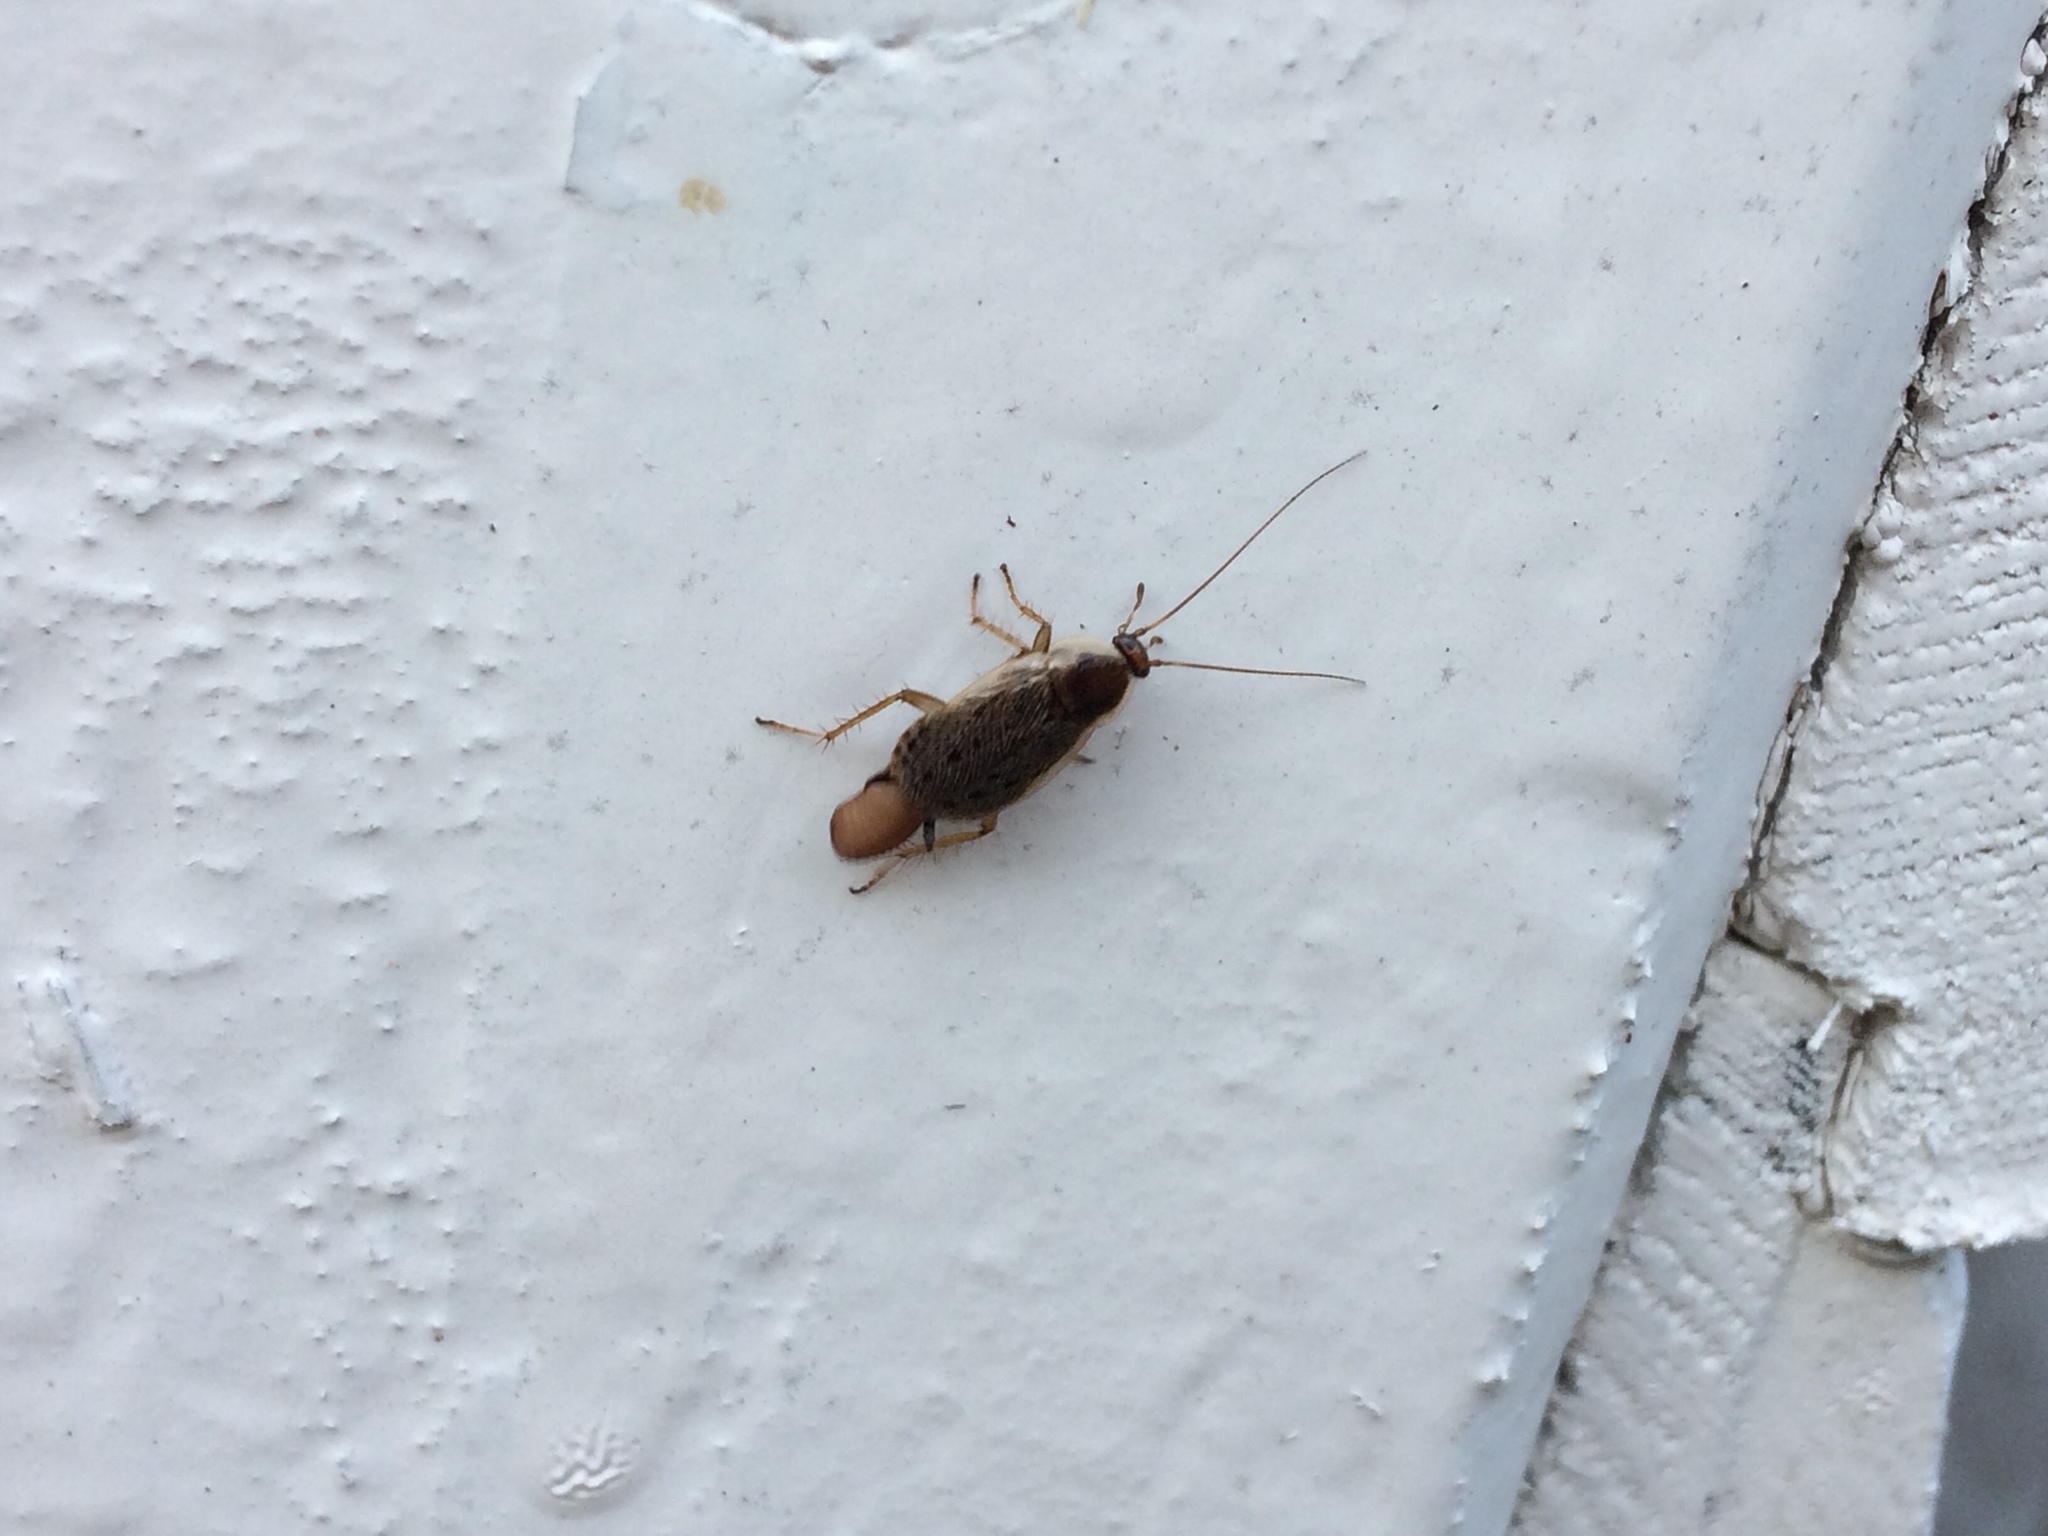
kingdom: Animalia
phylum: Arthropoda
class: Insecta
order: Blattodea
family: Ectobiidae
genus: Ectobius
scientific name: Ectobius lapponicus
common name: Dusky cockroach
